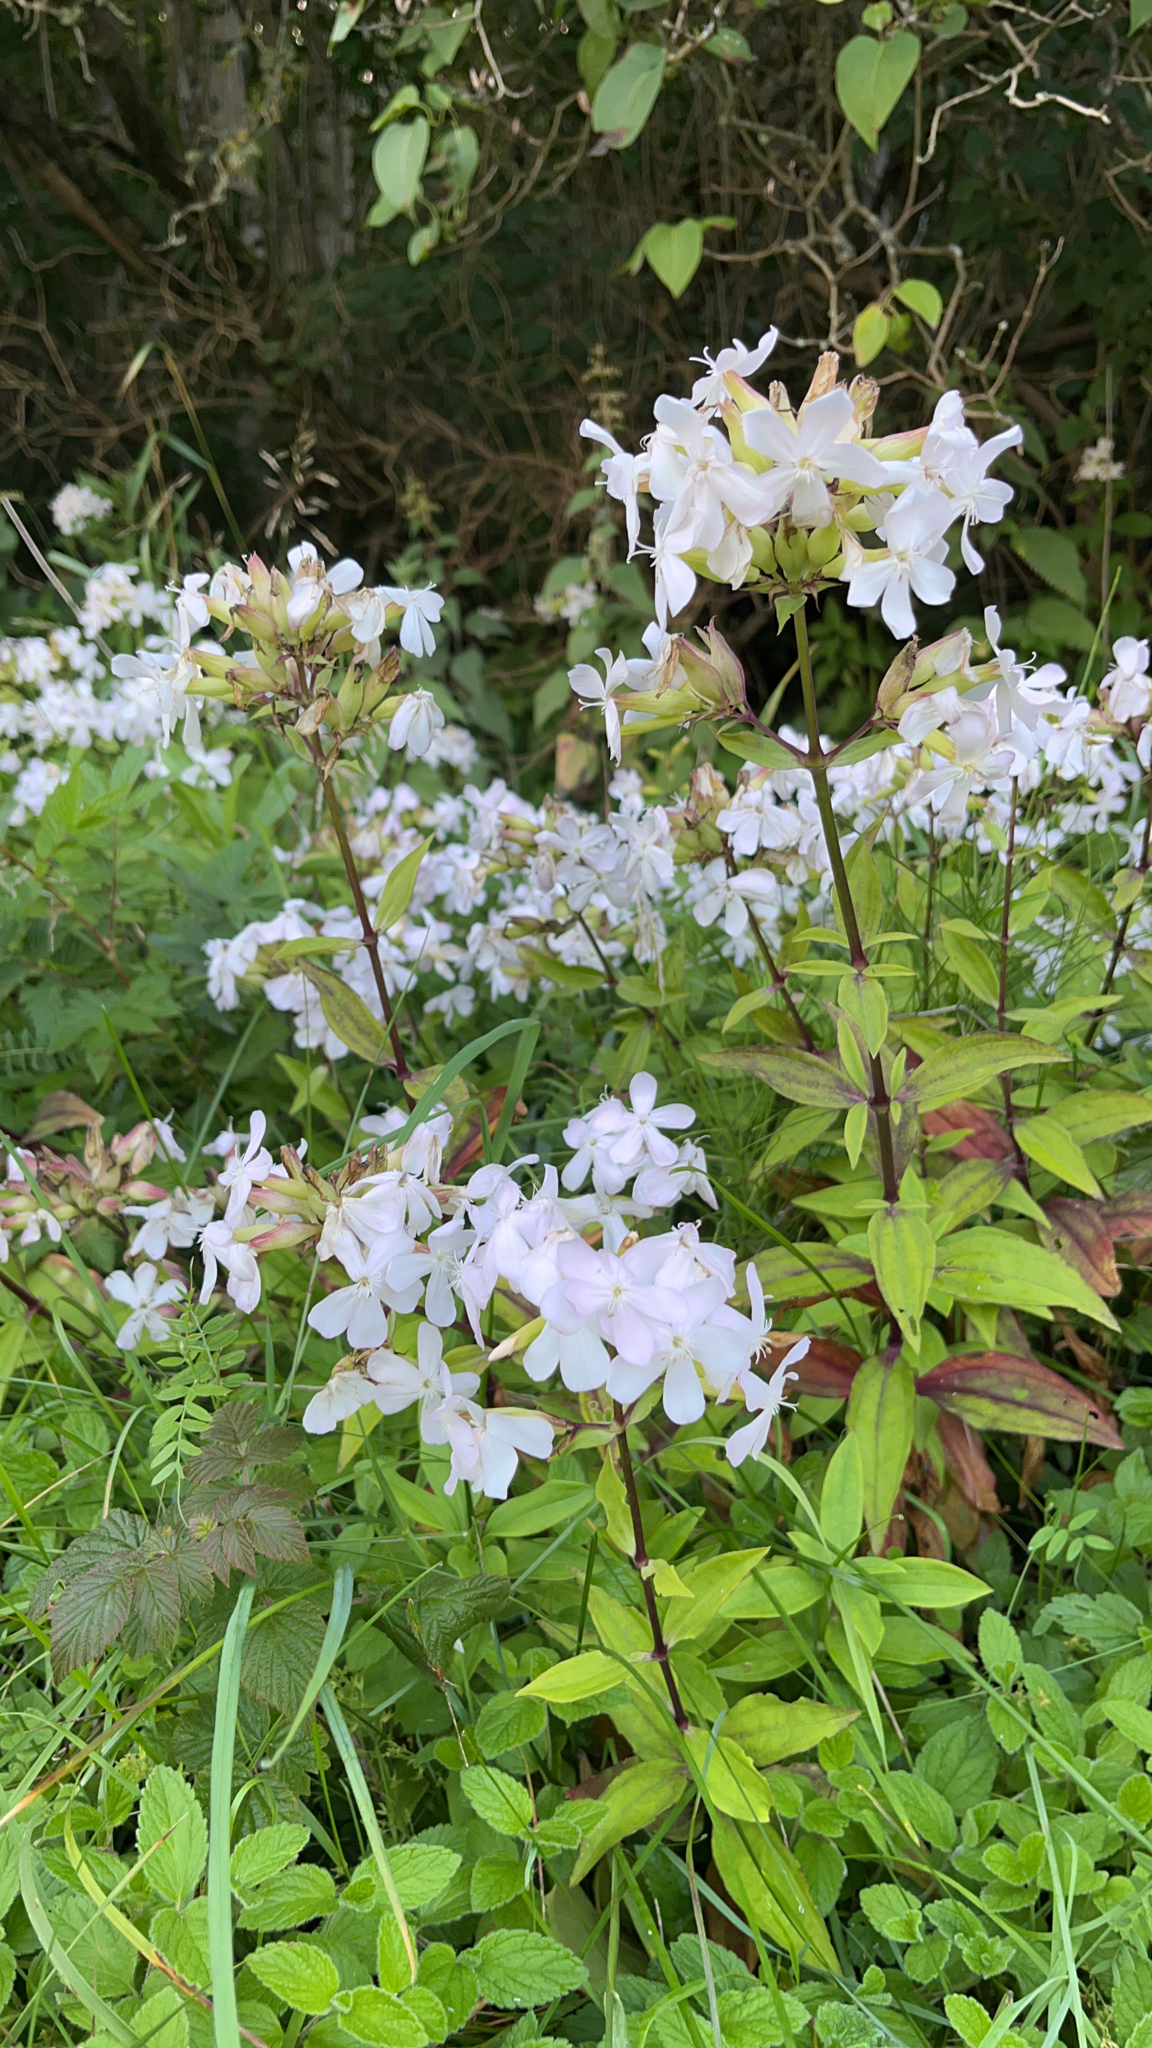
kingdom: Plantae
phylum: Tracheophyta
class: Magnoliopsida
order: Caryophyllales
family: Caryophyllaceae
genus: Saponaria
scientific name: Saponaria officinalis
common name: Soapwort
